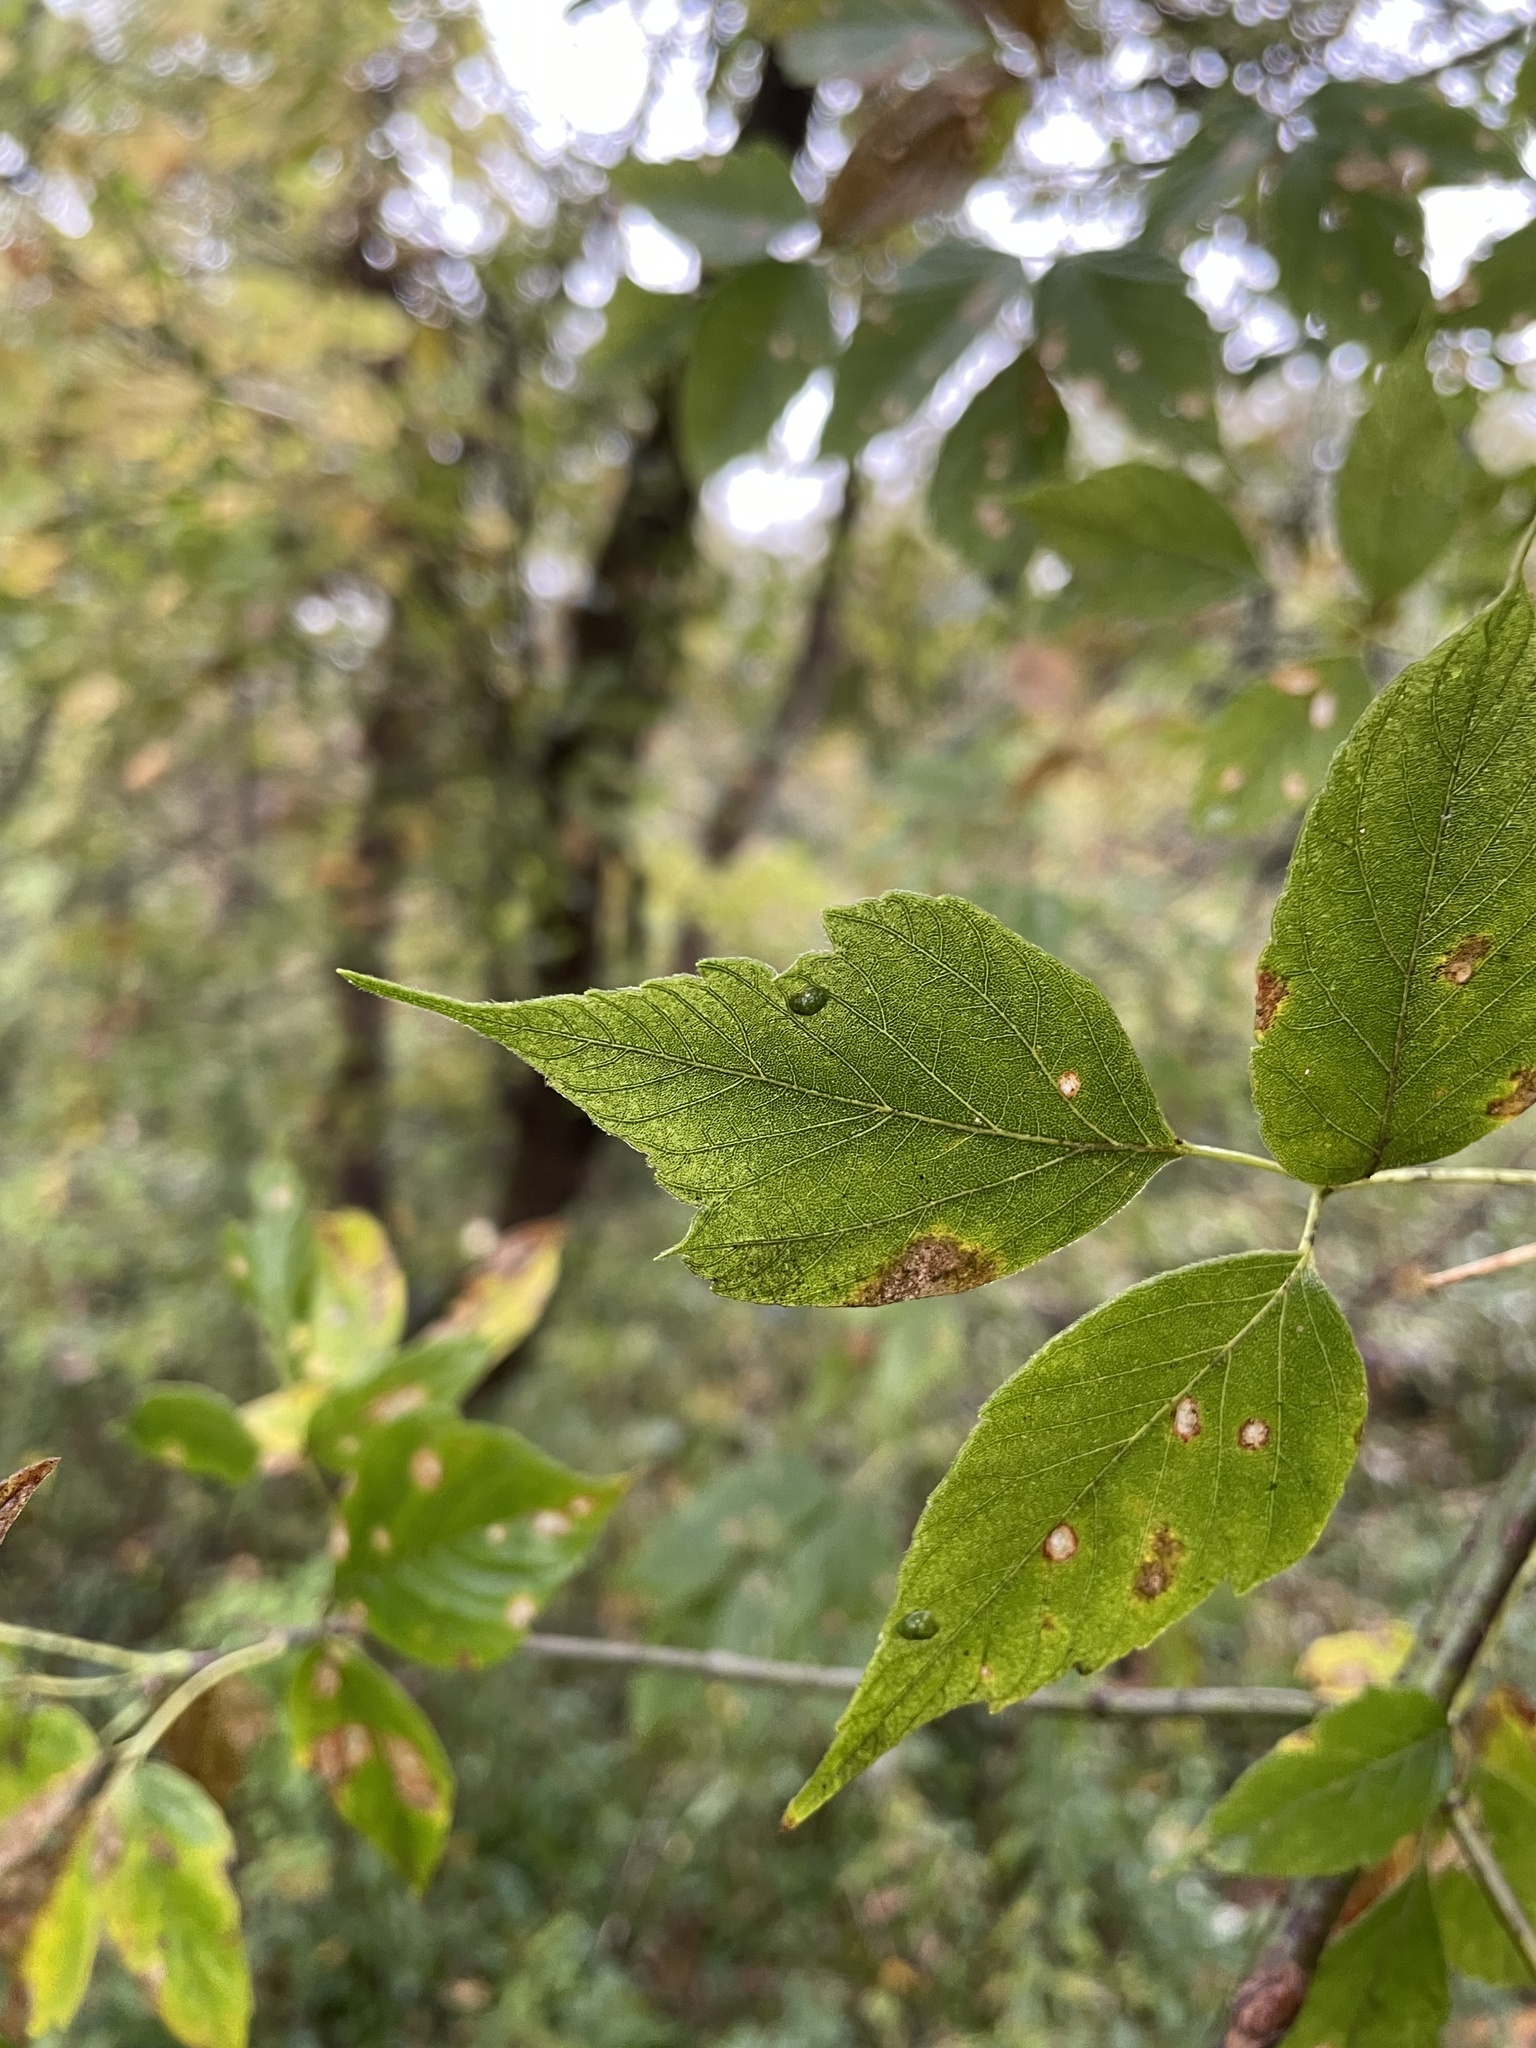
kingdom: Plantae
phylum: Tracheophyta
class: Magnoliopsida
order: Sapindales
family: Sapindaceae
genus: Acer
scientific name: Acer negundo
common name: Ashleaf maple
